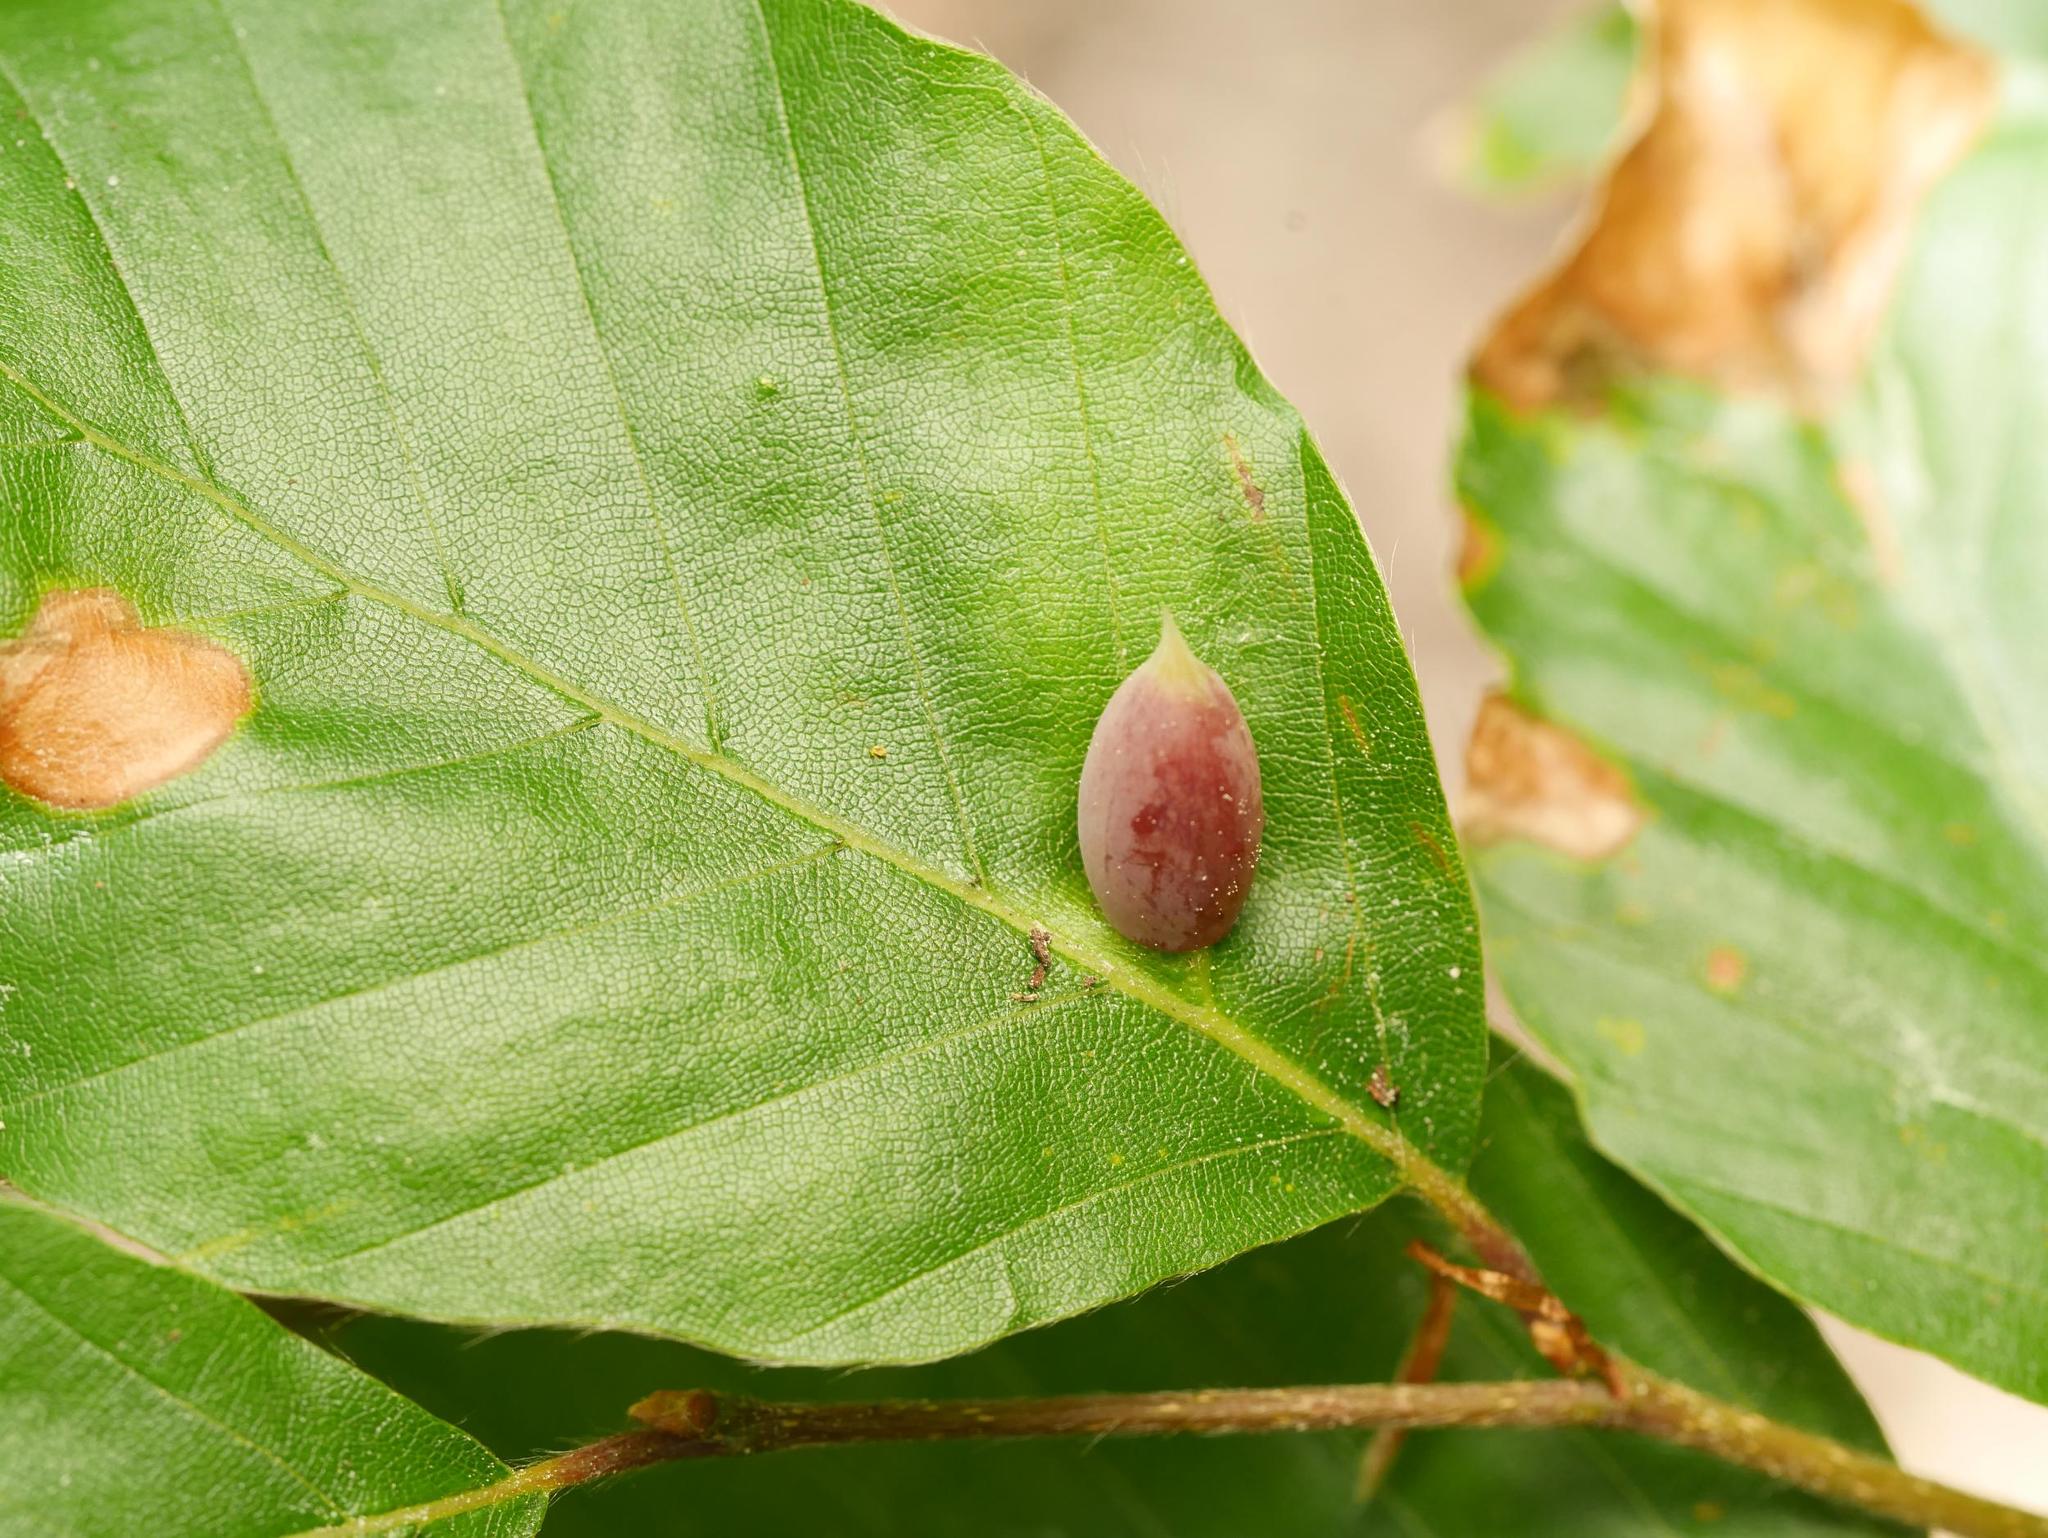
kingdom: Animalia
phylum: Arthropoda
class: Insecta
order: Diptera
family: Cecidomyiidae
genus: Mikiola
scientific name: Mikiola fagi
